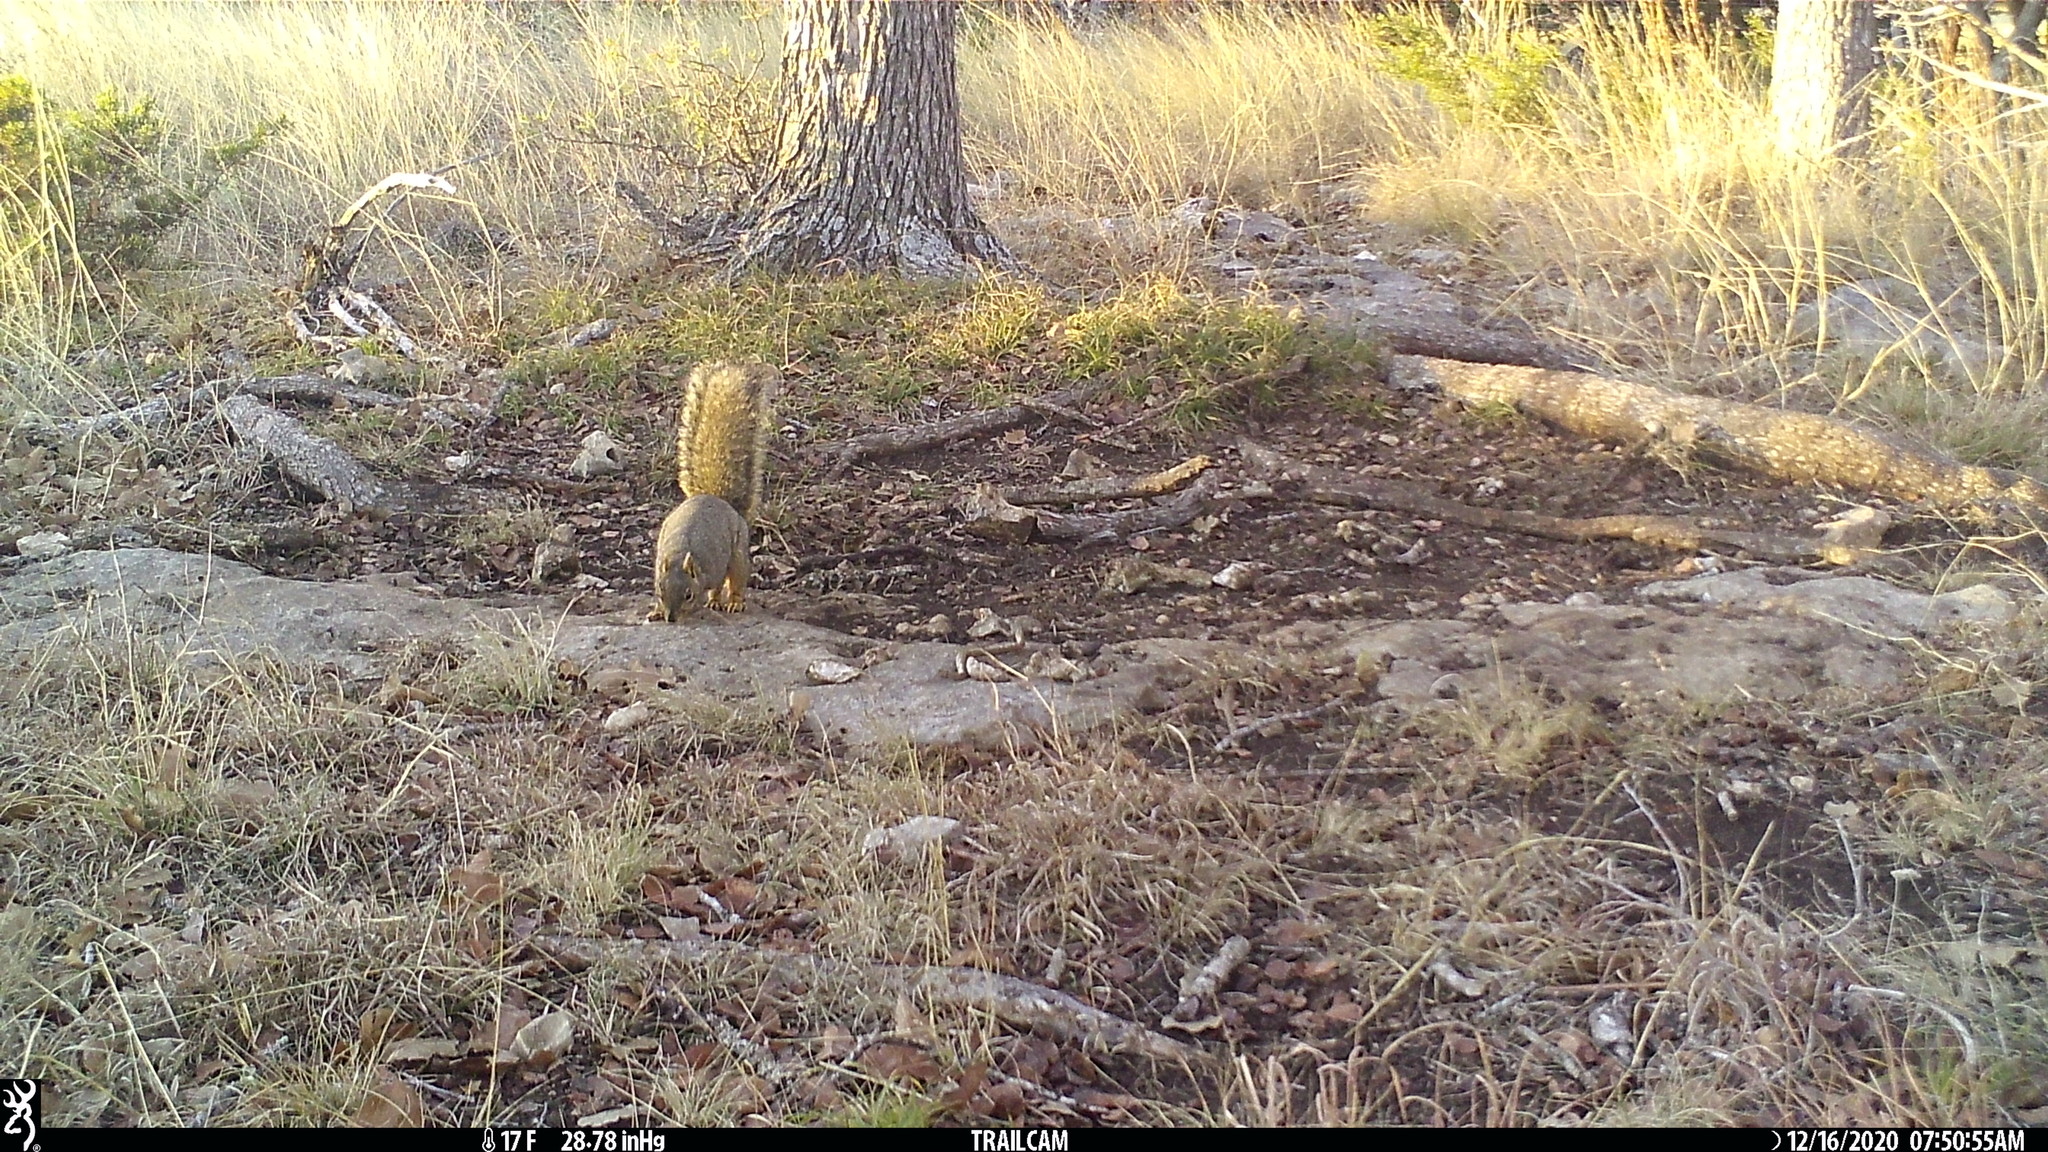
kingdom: Animalia
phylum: Chordata
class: Mammalia
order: Rodentia
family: Sciuridae
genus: Sciurus
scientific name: Sciurus niger
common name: Fox squirrel
